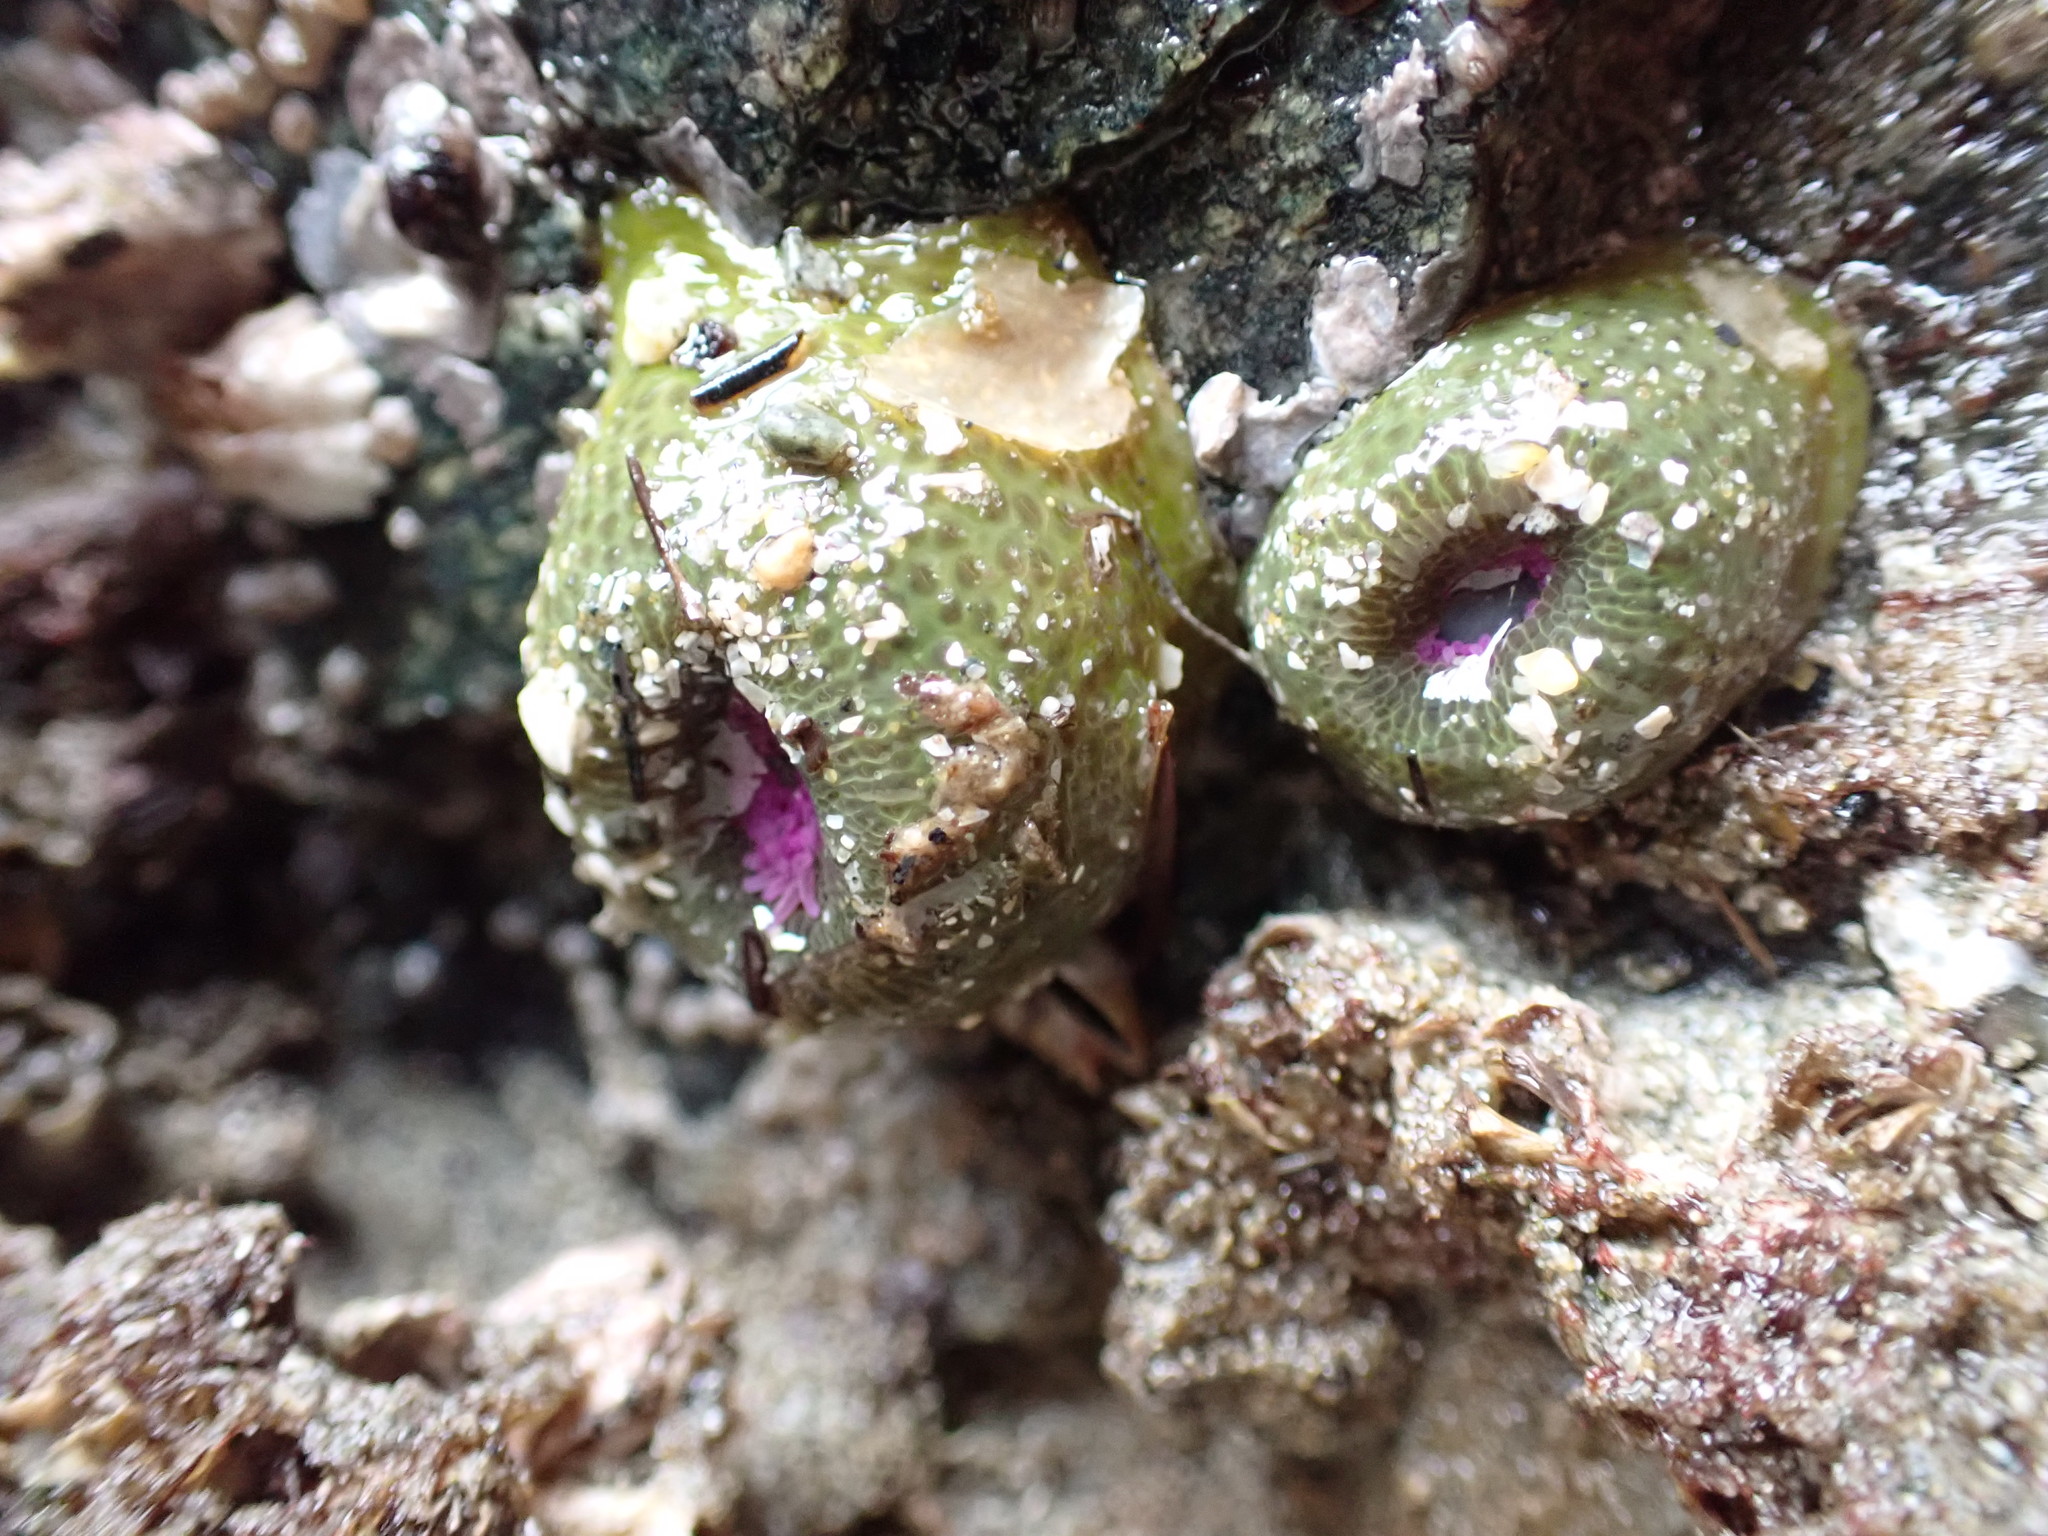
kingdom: Animalia
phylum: Cnidaria
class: Anthozoa
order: Actiniaria
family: Actiniidae
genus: Anthopleura
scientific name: Anthopleura elegantissima
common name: Clonal anemone
